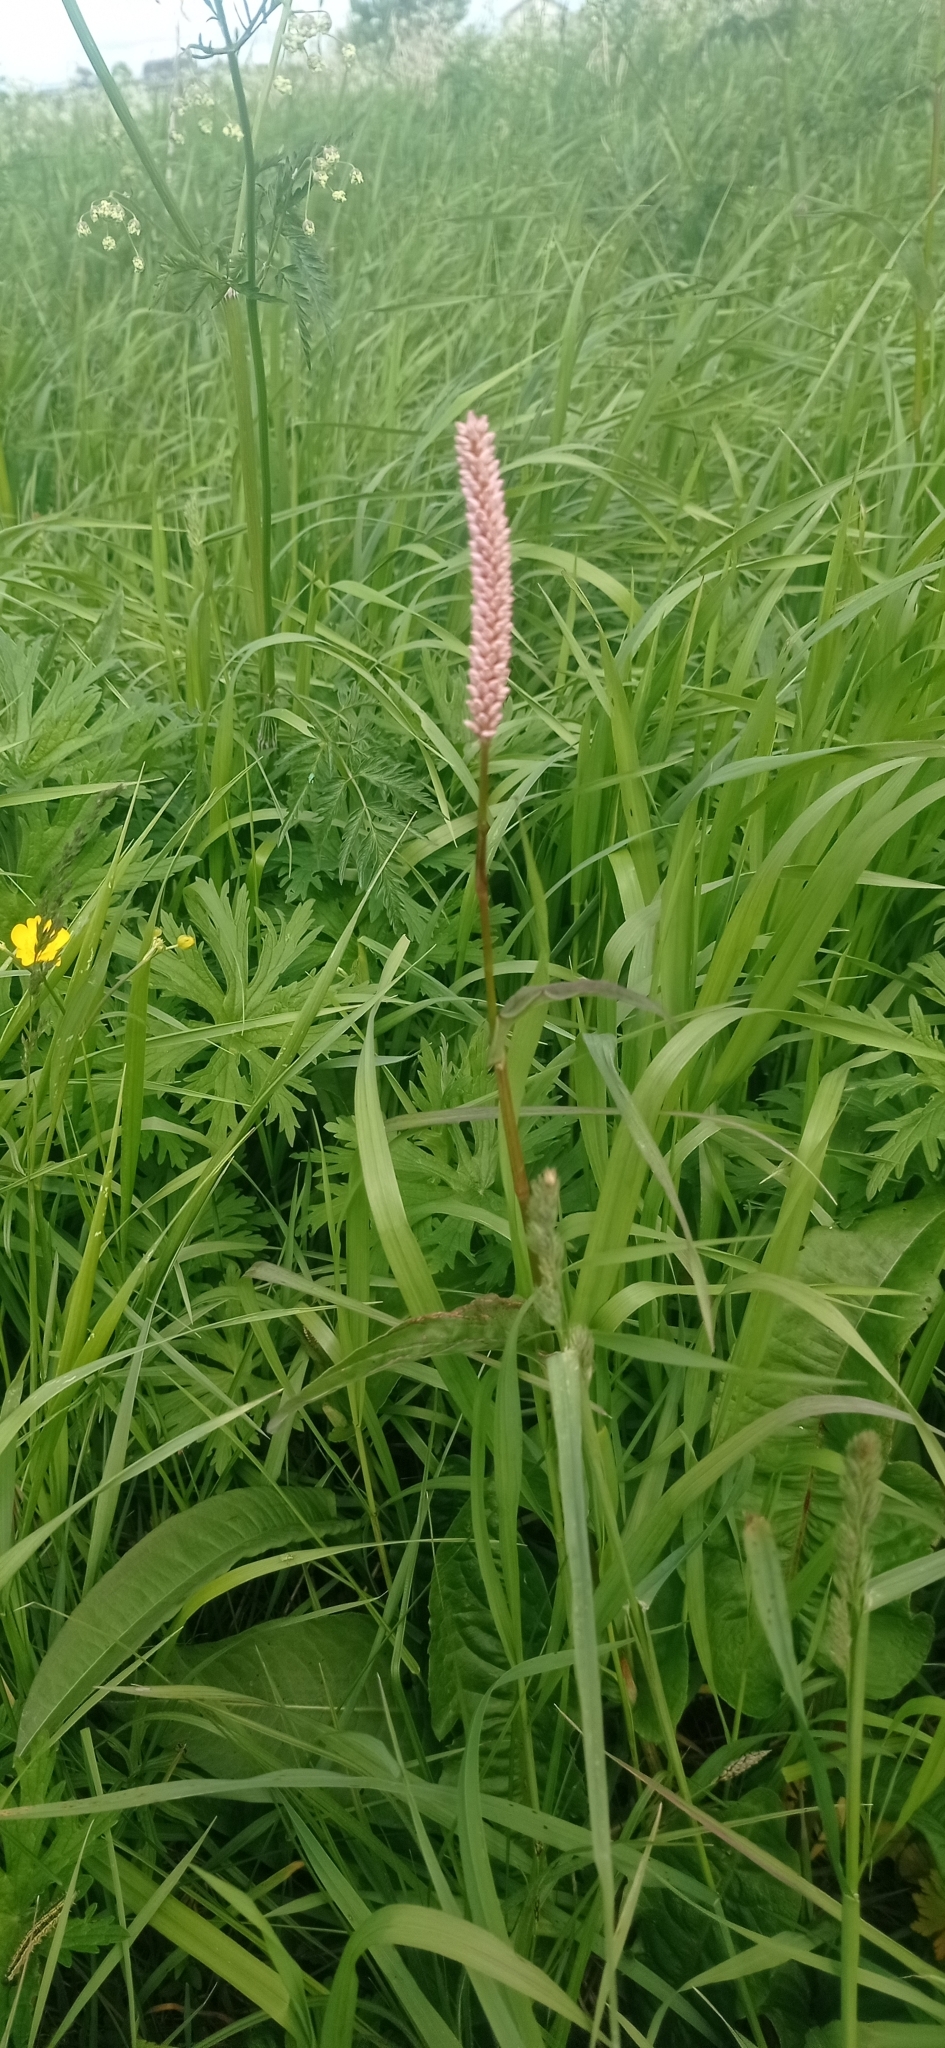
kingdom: Plantae
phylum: Tracheophyta
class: Magnoliopsida
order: Caryophyllales
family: Polygonaceae
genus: Bistorta
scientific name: Bistorta officinalis
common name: Common bistort
